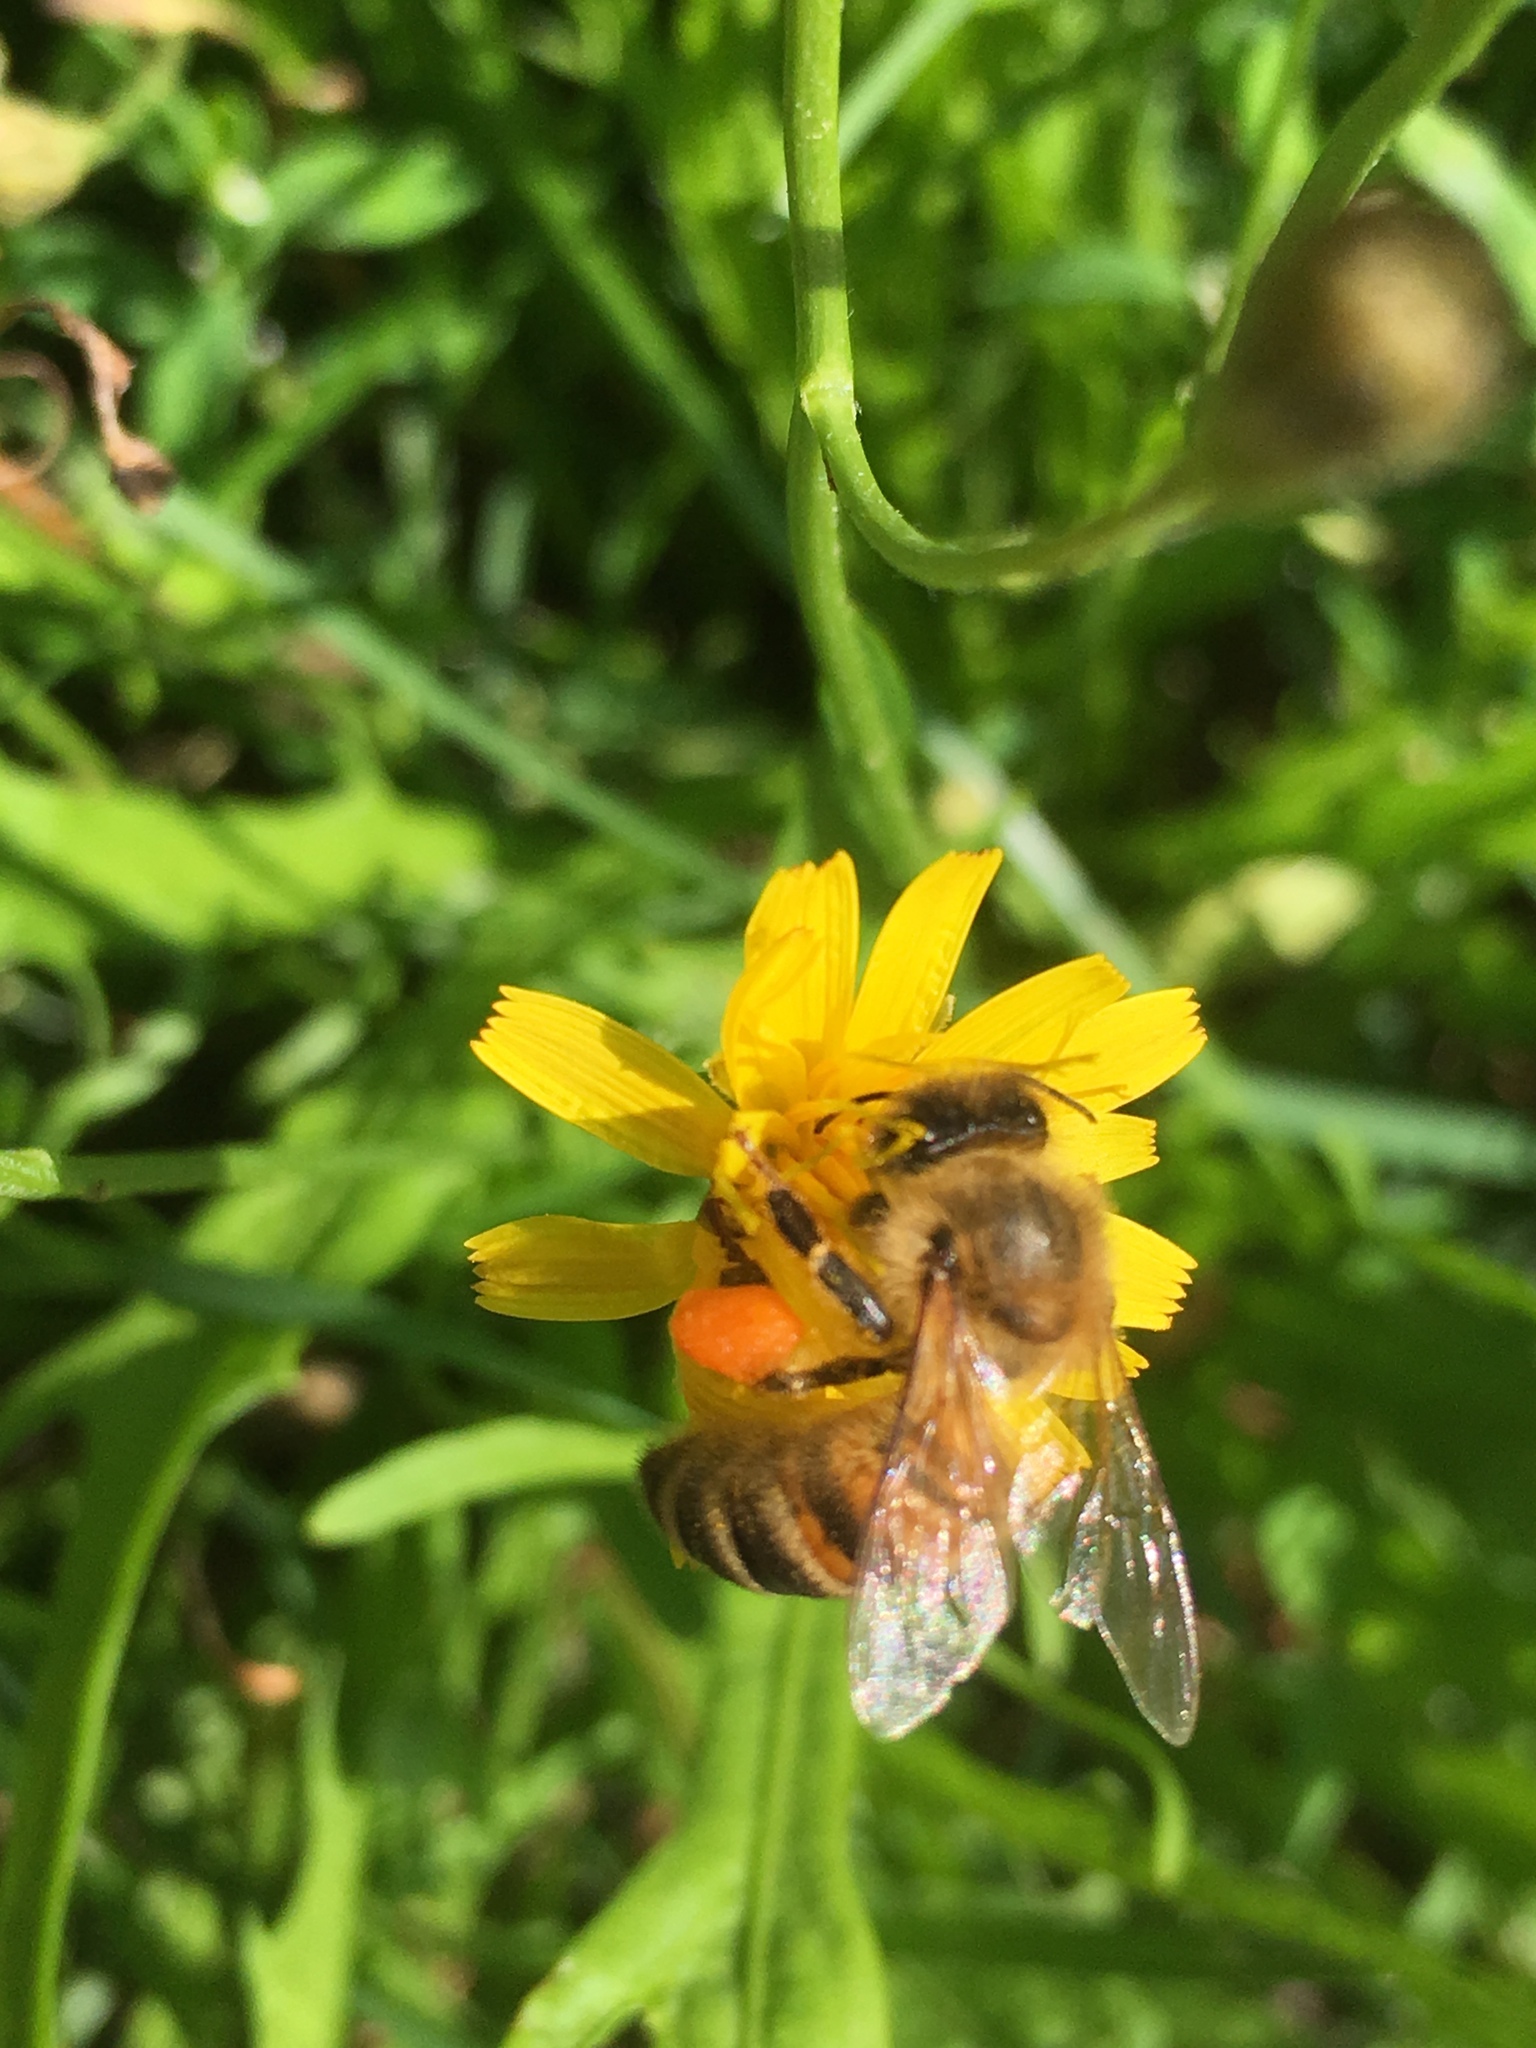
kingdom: Animalia
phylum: Arthropoda
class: Insecta
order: Hymenoptera
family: Apidae
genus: Apis
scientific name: Apis mellifera
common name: Honey bee
